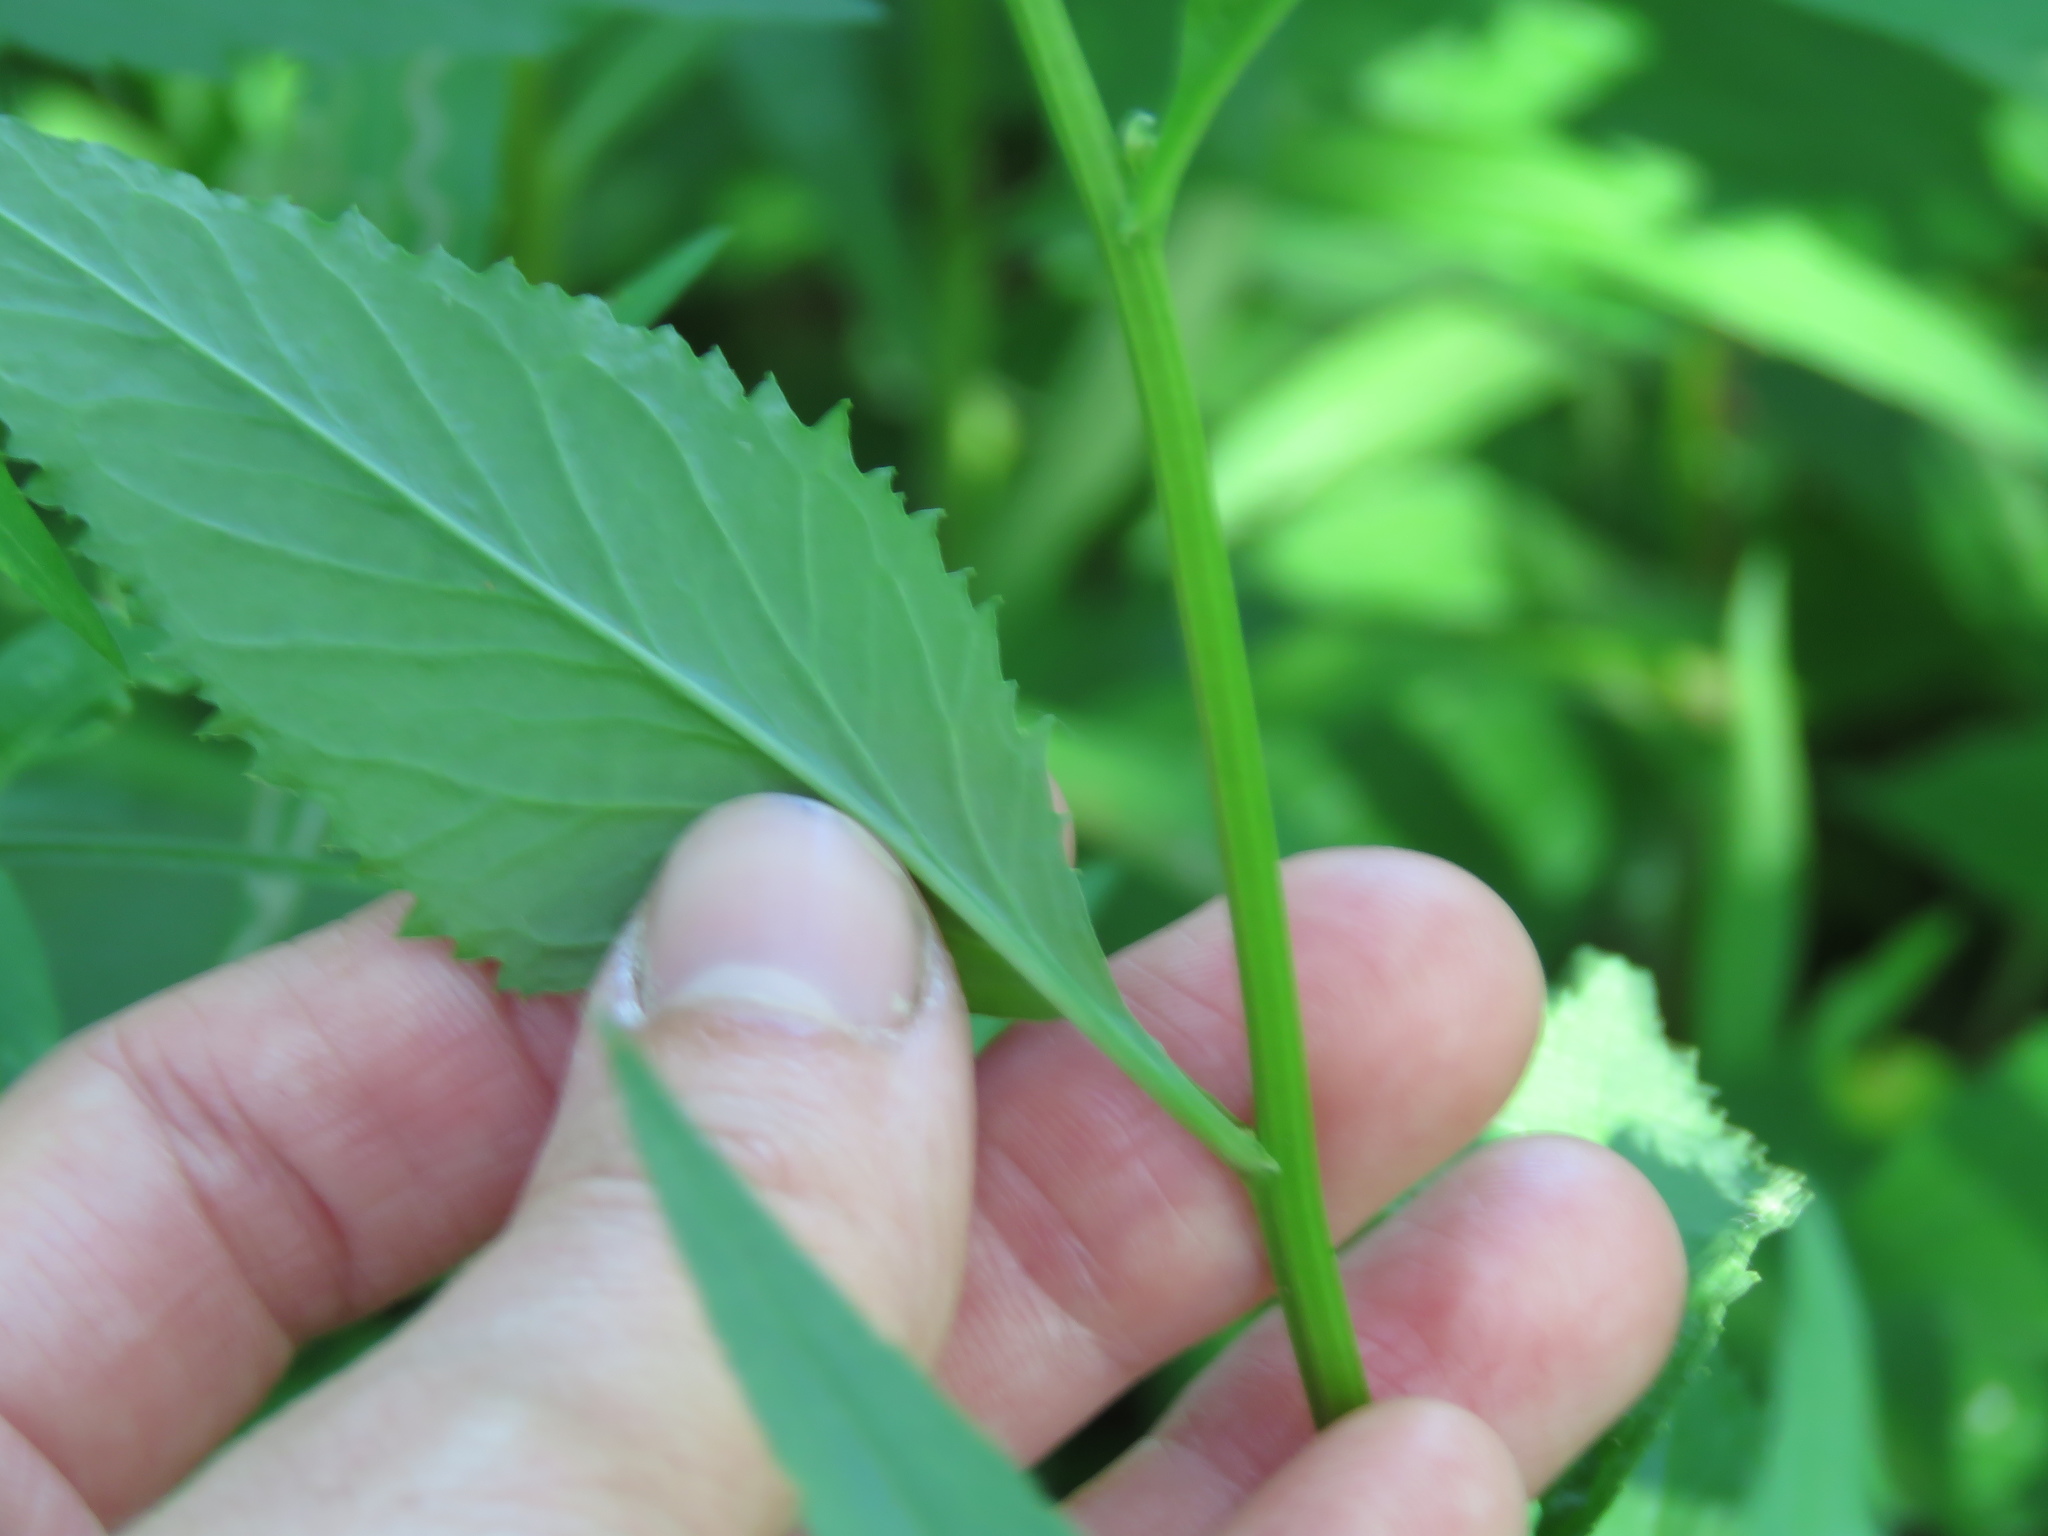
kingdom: Plantae
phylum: Tracheophyta
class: Magnoliopsida
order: Brassicales
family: Brassicaceae
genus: Iodanthus
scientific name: Iodanthus pinnatifidus
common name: Violet rocket
